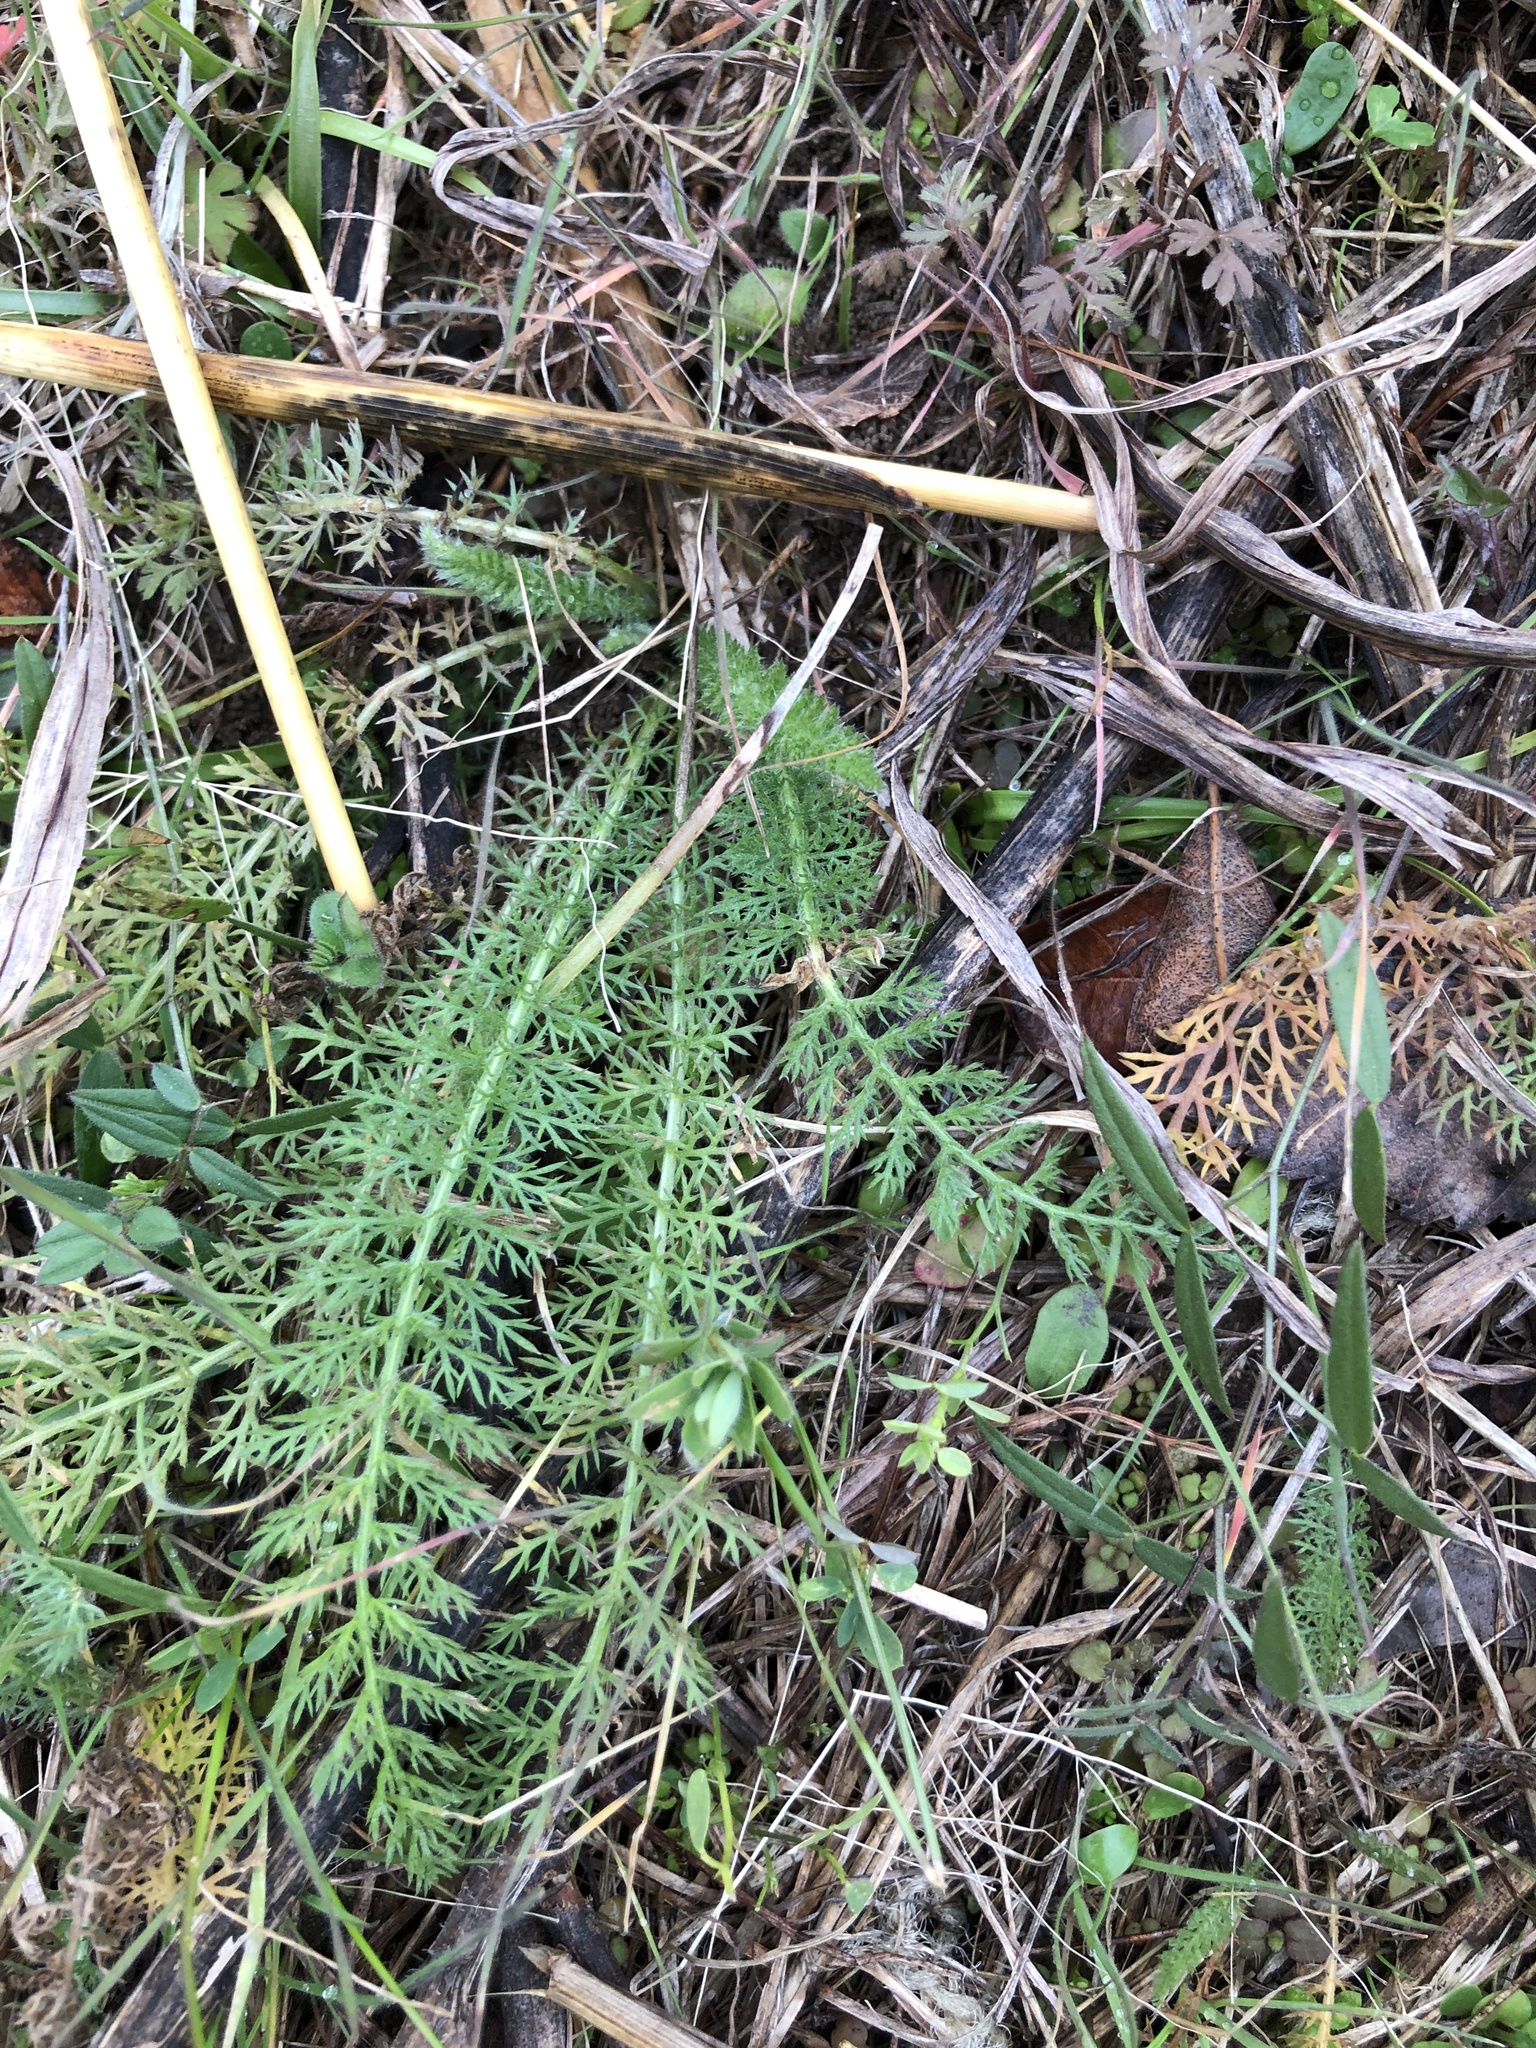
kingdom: Plantae
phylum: Tracheophyta
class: Magnoliopsida
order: Asterales
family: Asteraceae
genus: Achillea
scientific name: Achillea millefolium
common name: Yarrow
